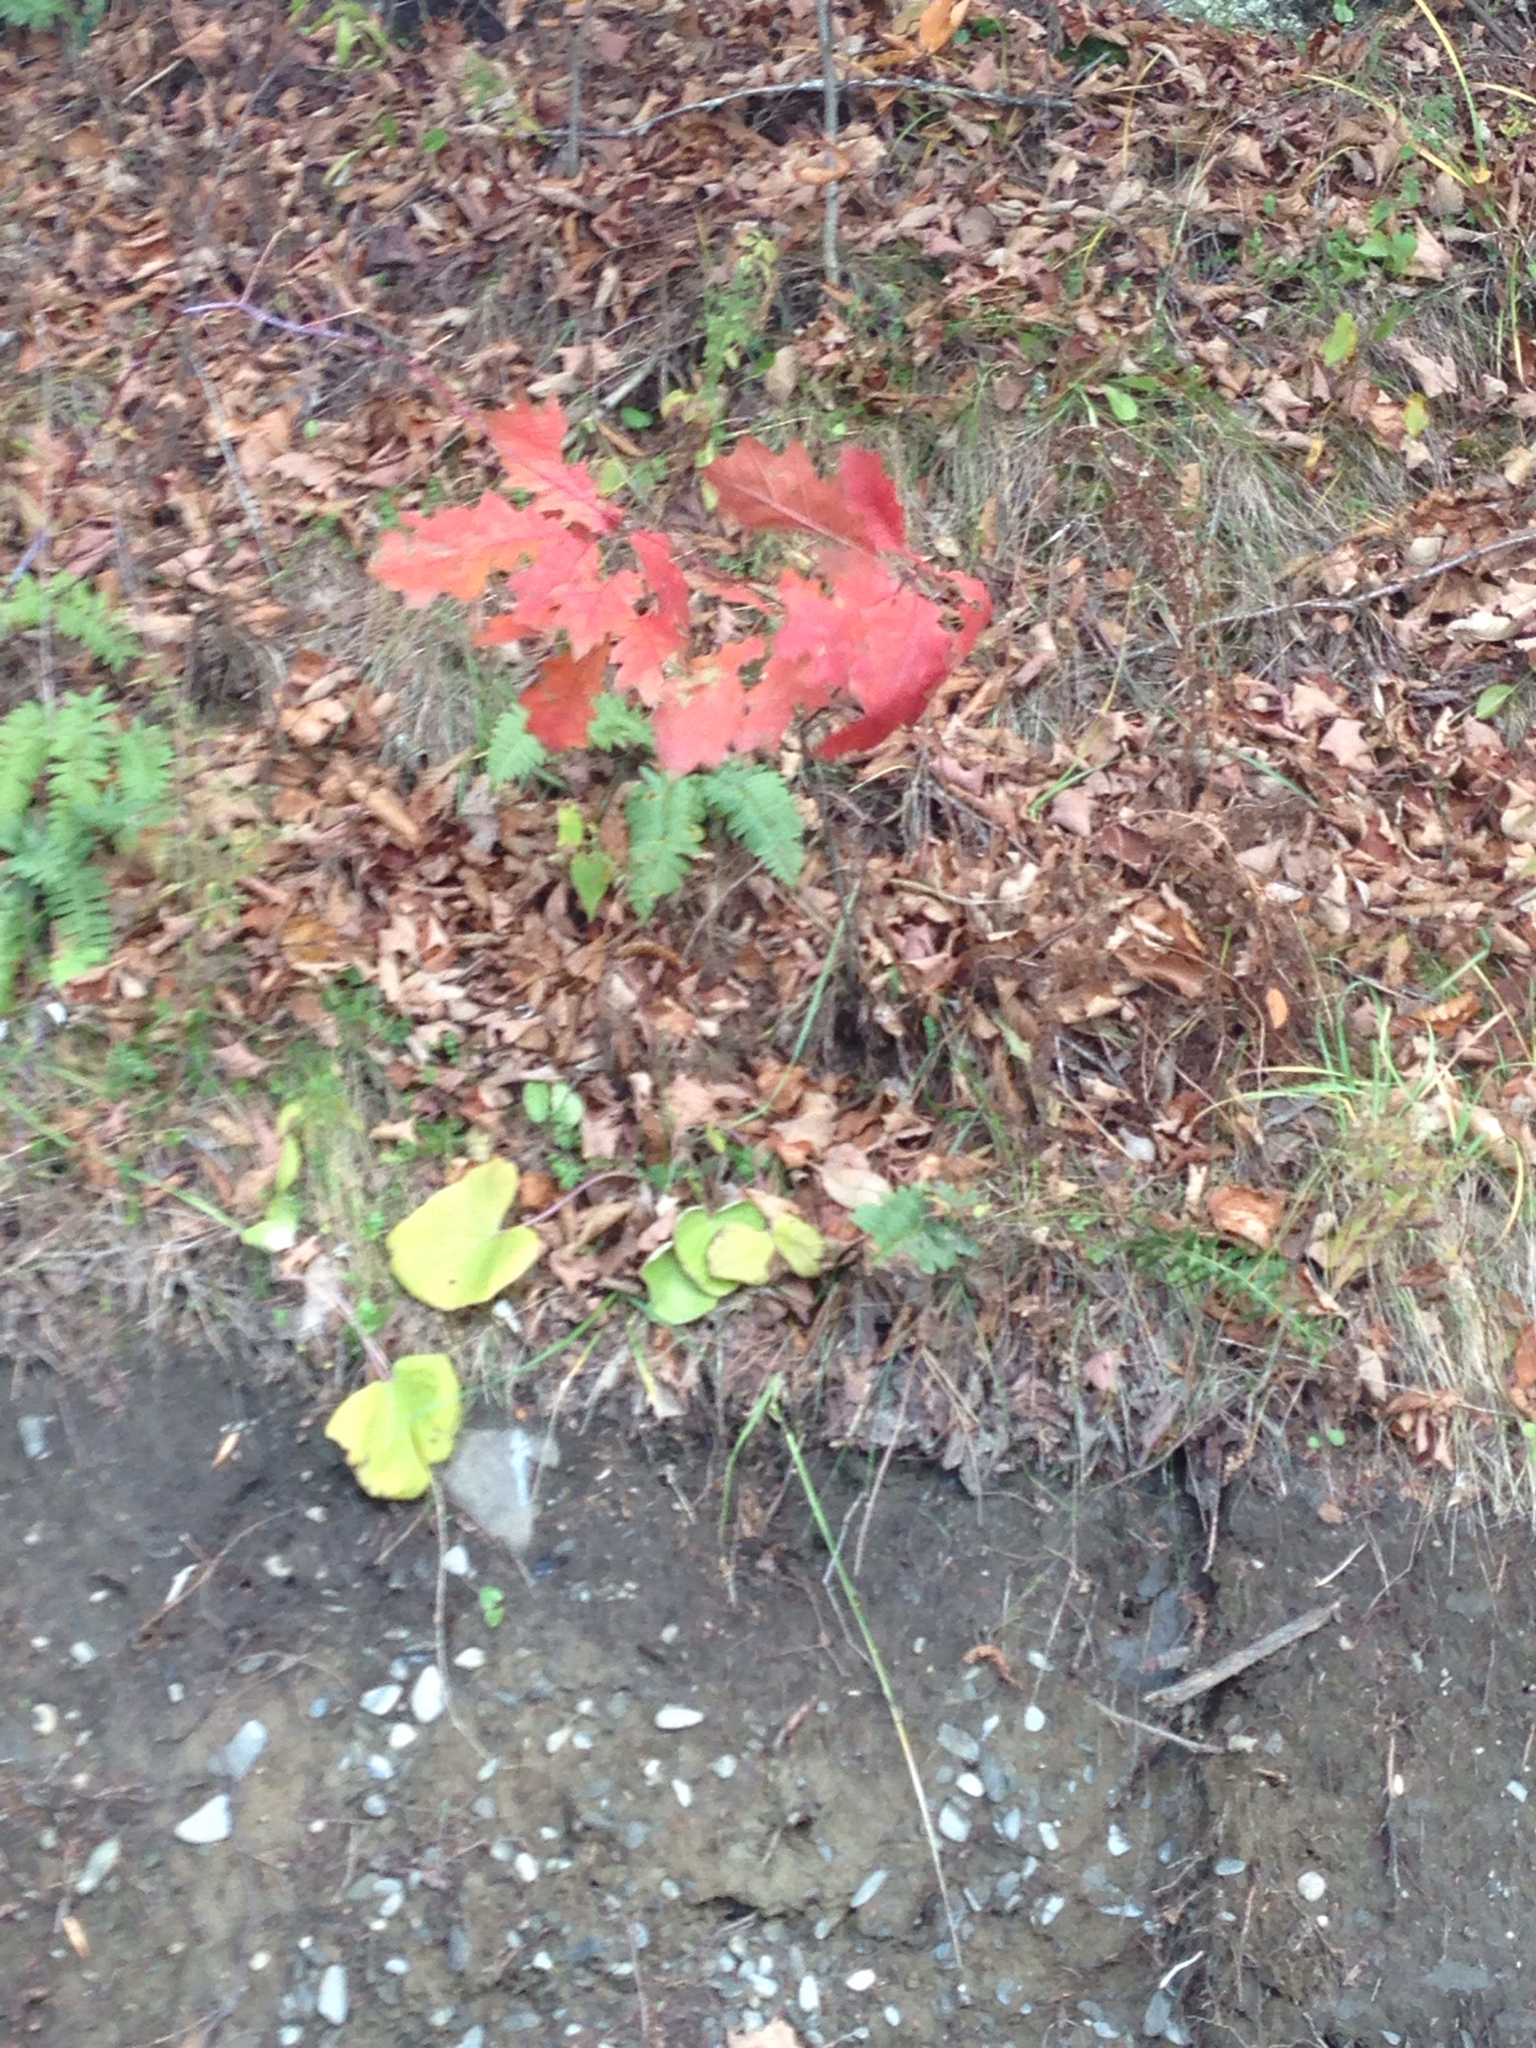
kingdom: Plantae
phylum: Tracheophyta
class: Polypodiopsida
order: Polypodiales
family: Dryopteridaceae
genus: Polystichum
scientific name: Polystichum acrostichoides
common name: Christmas fern
